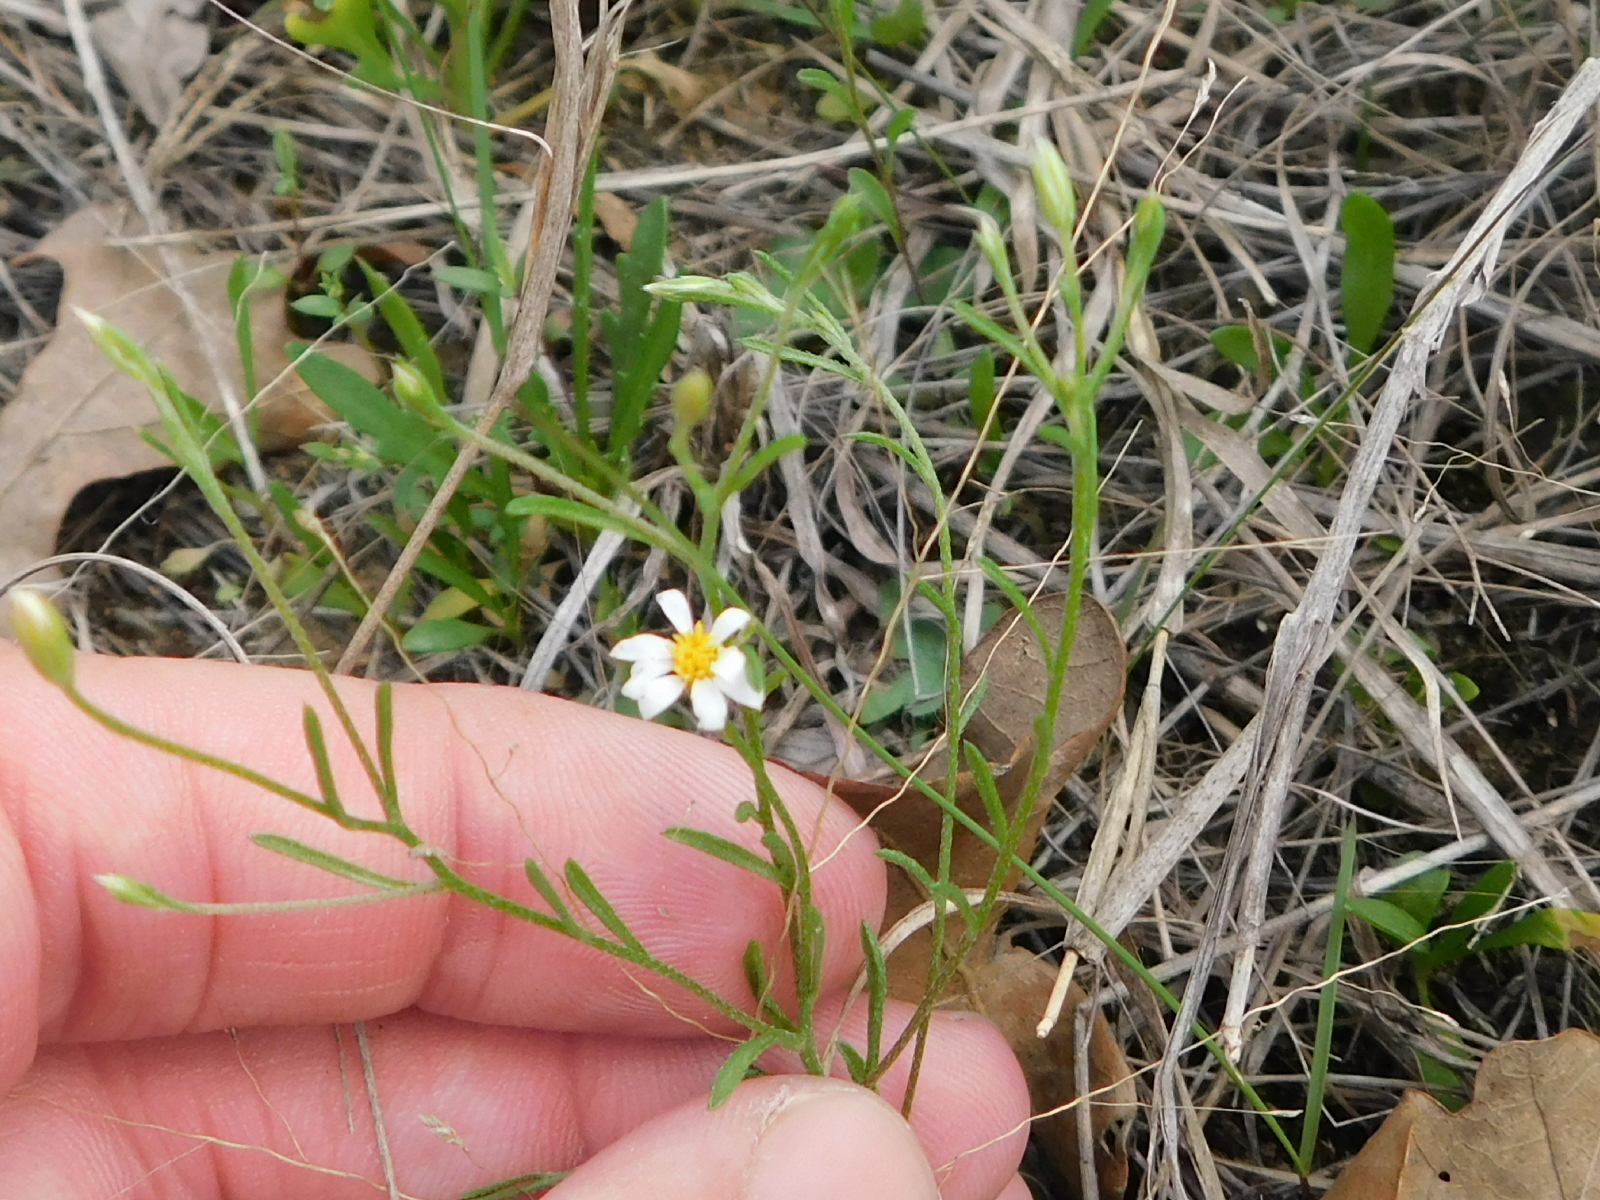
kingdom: Plantae
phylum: Tracheophyta
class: Magnoliopsida
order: Asterales
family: Asteraceae
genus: Chaetopappa
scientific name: Chaetopappa asteroides
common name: Tiny lazy daisy
